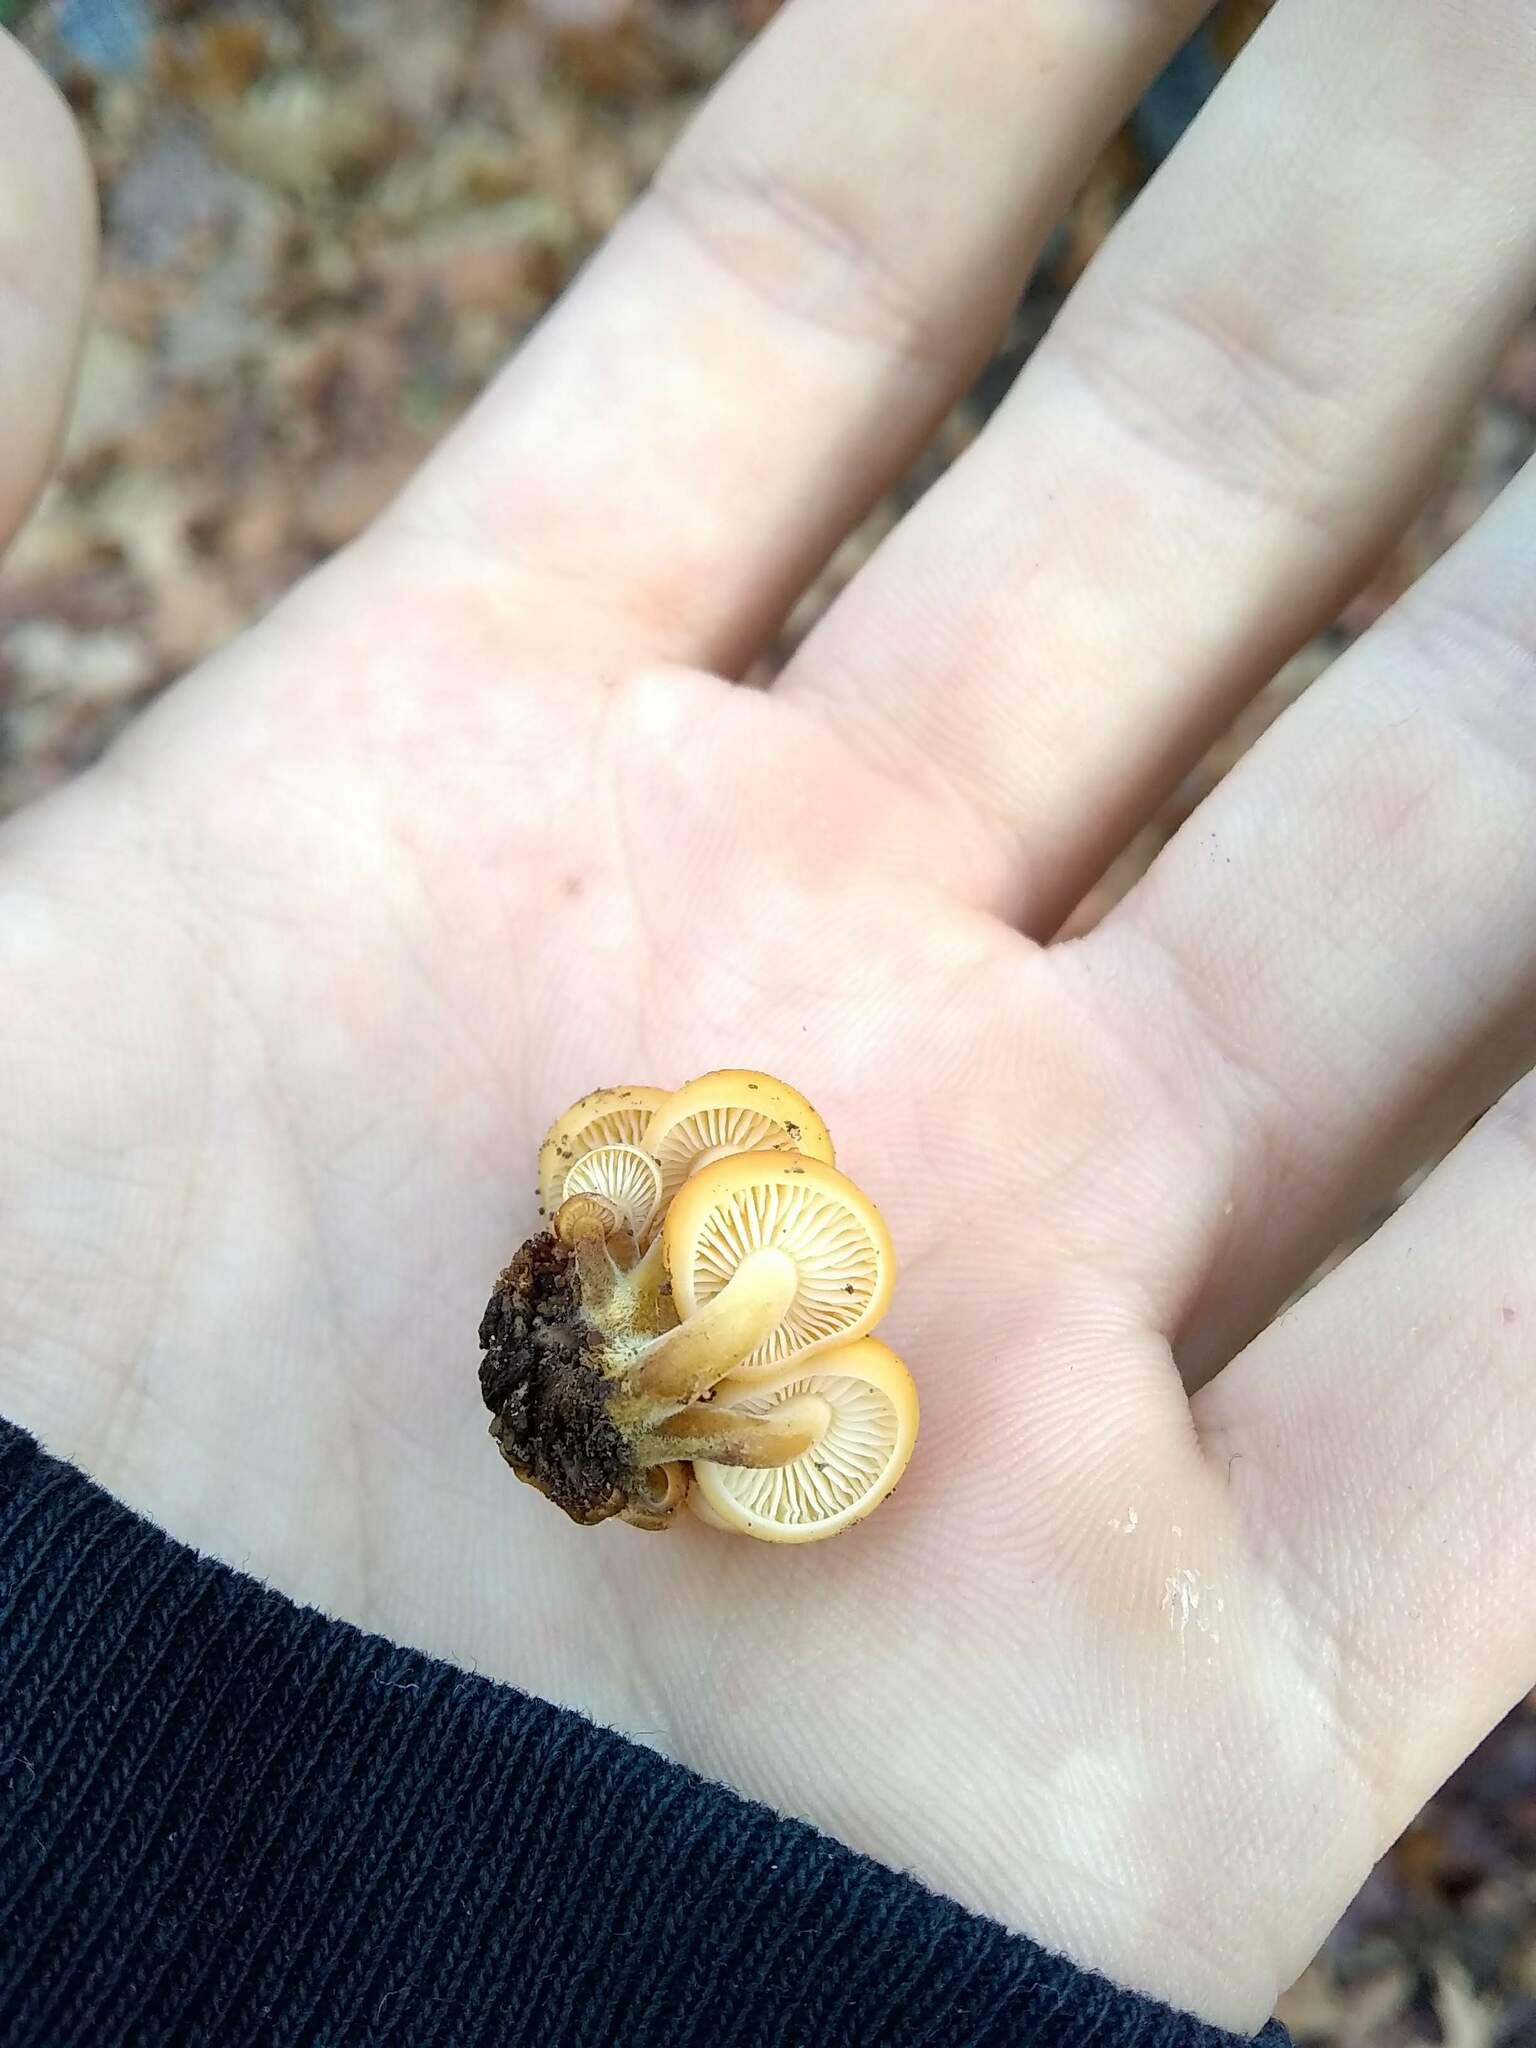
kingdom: Fungi
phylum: Basidiomycota
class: Agaricomycetes
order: Agaricales
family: Physalacriaceae
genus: Flammulina
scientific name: Flammulina velutipes
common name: Velvet shank
